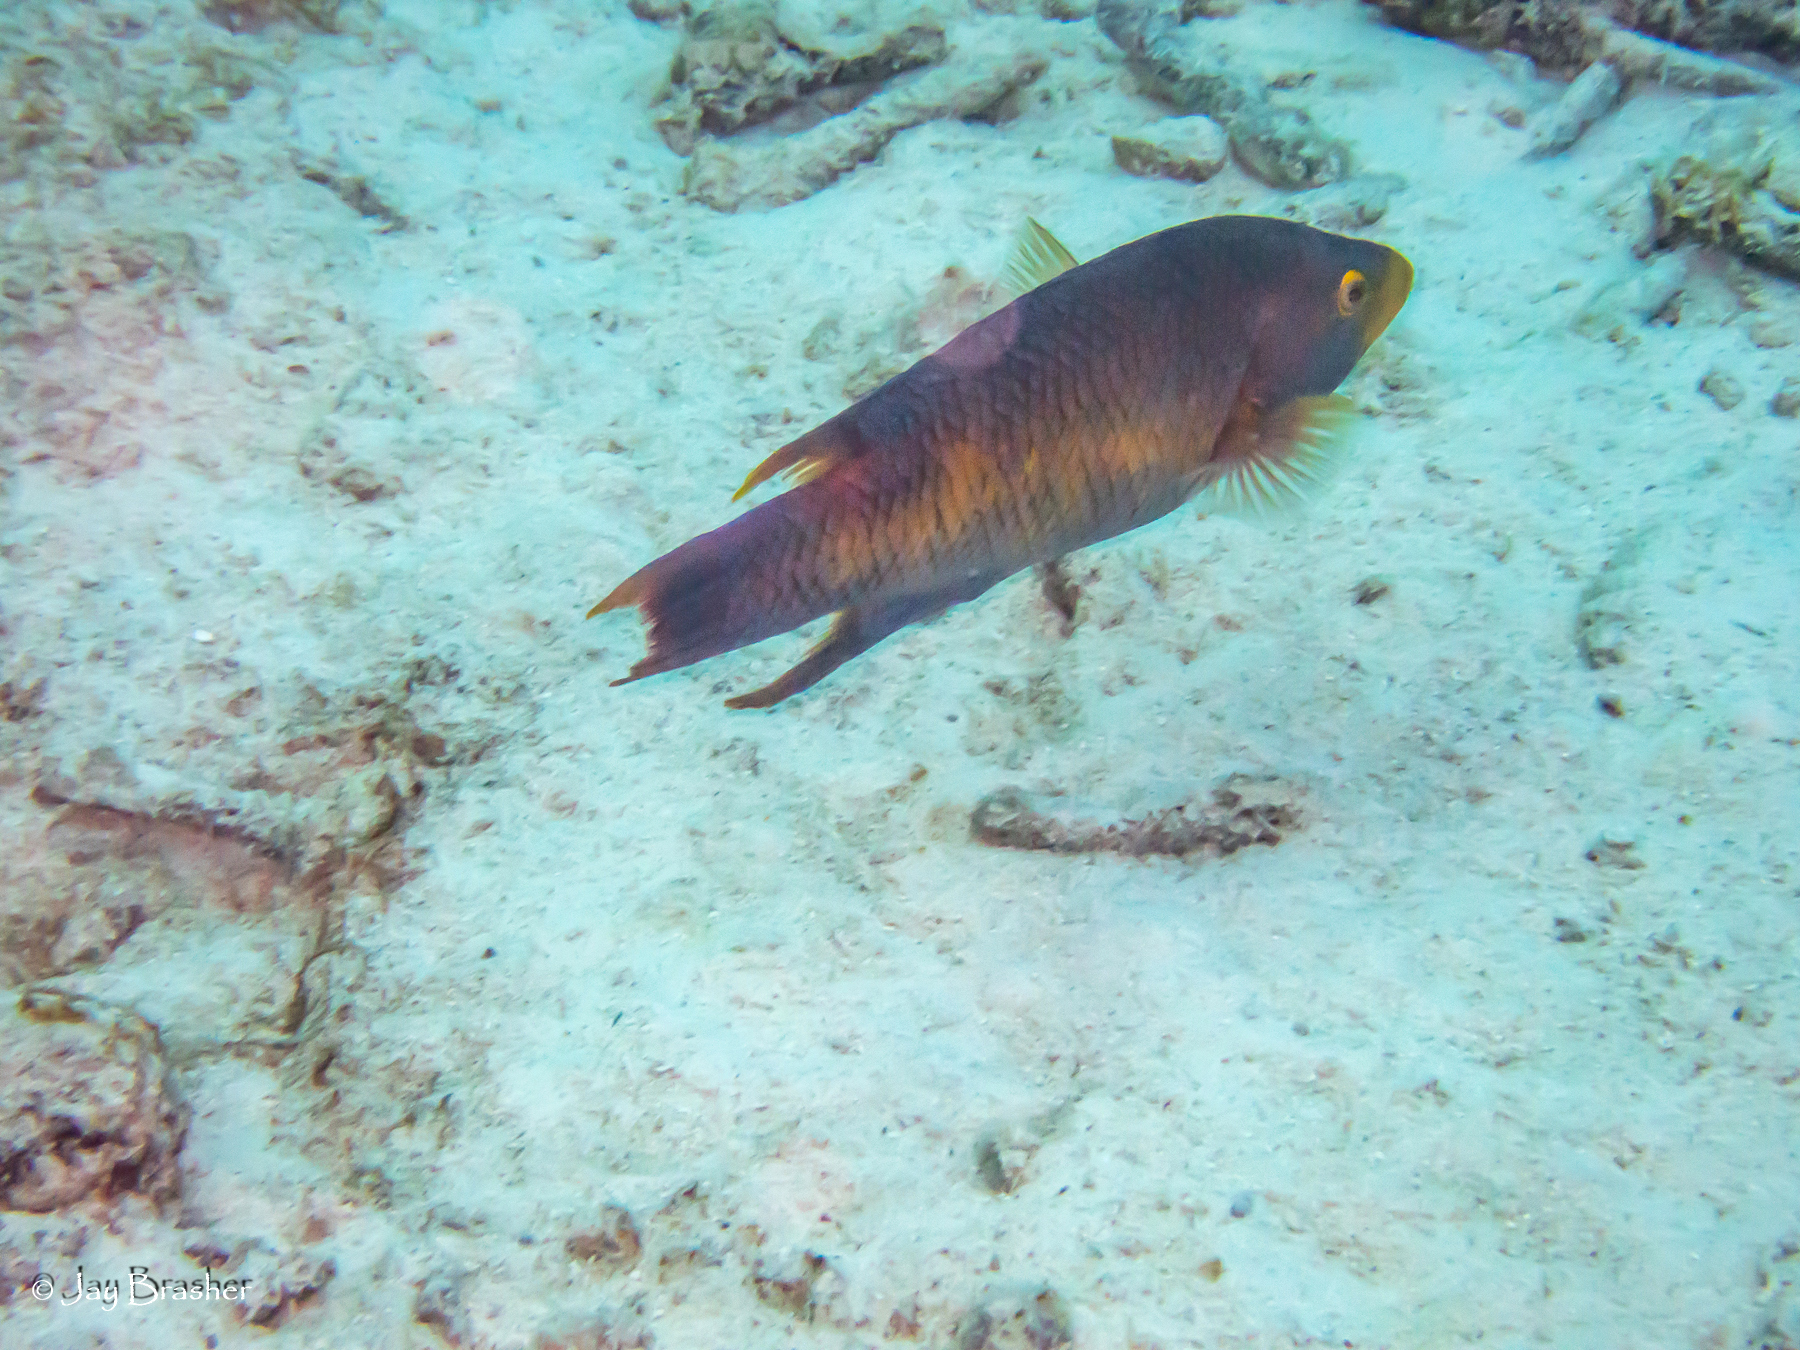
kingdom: Animalia
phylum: Chordata
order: Perciformes
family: Labridae
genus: Bodianus
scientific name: Bodianus rufus
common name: Spanish hogfish
